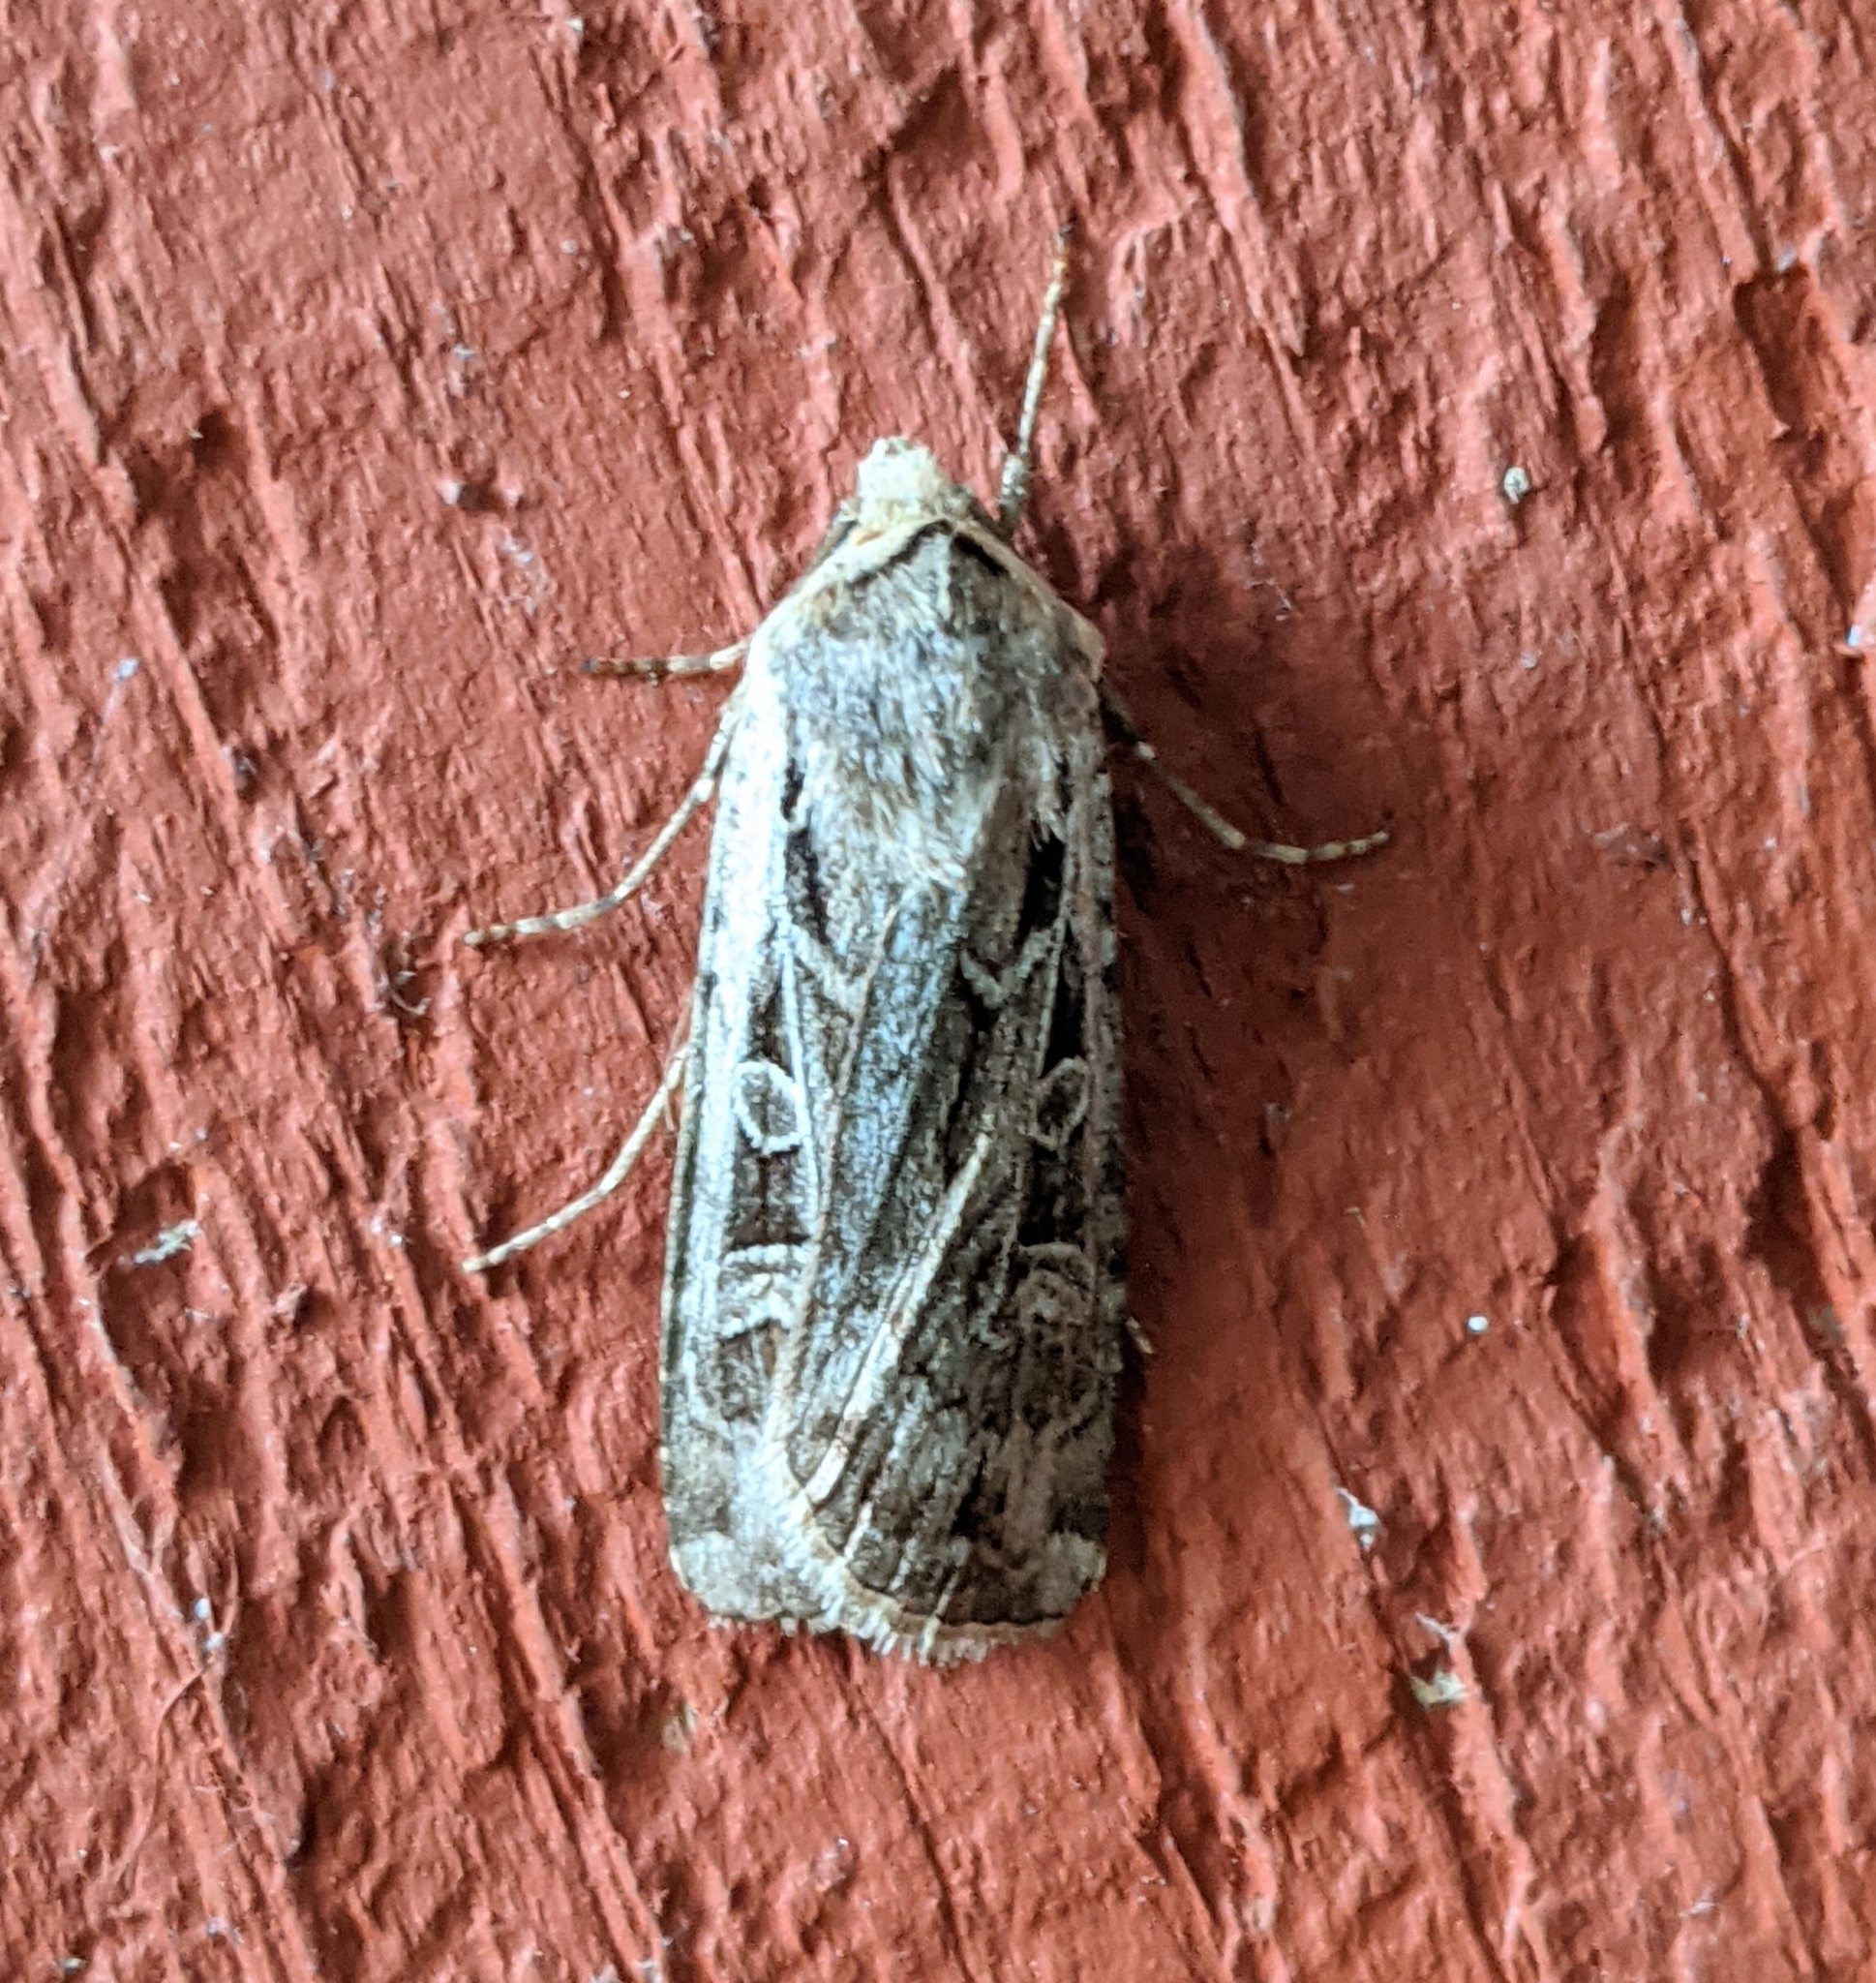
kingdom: Animalia
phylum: Arthropoda
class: Insecta
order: Lepidoptera
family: Noctuidae
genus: Euxoa
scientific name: Euxoa auxiliaris
